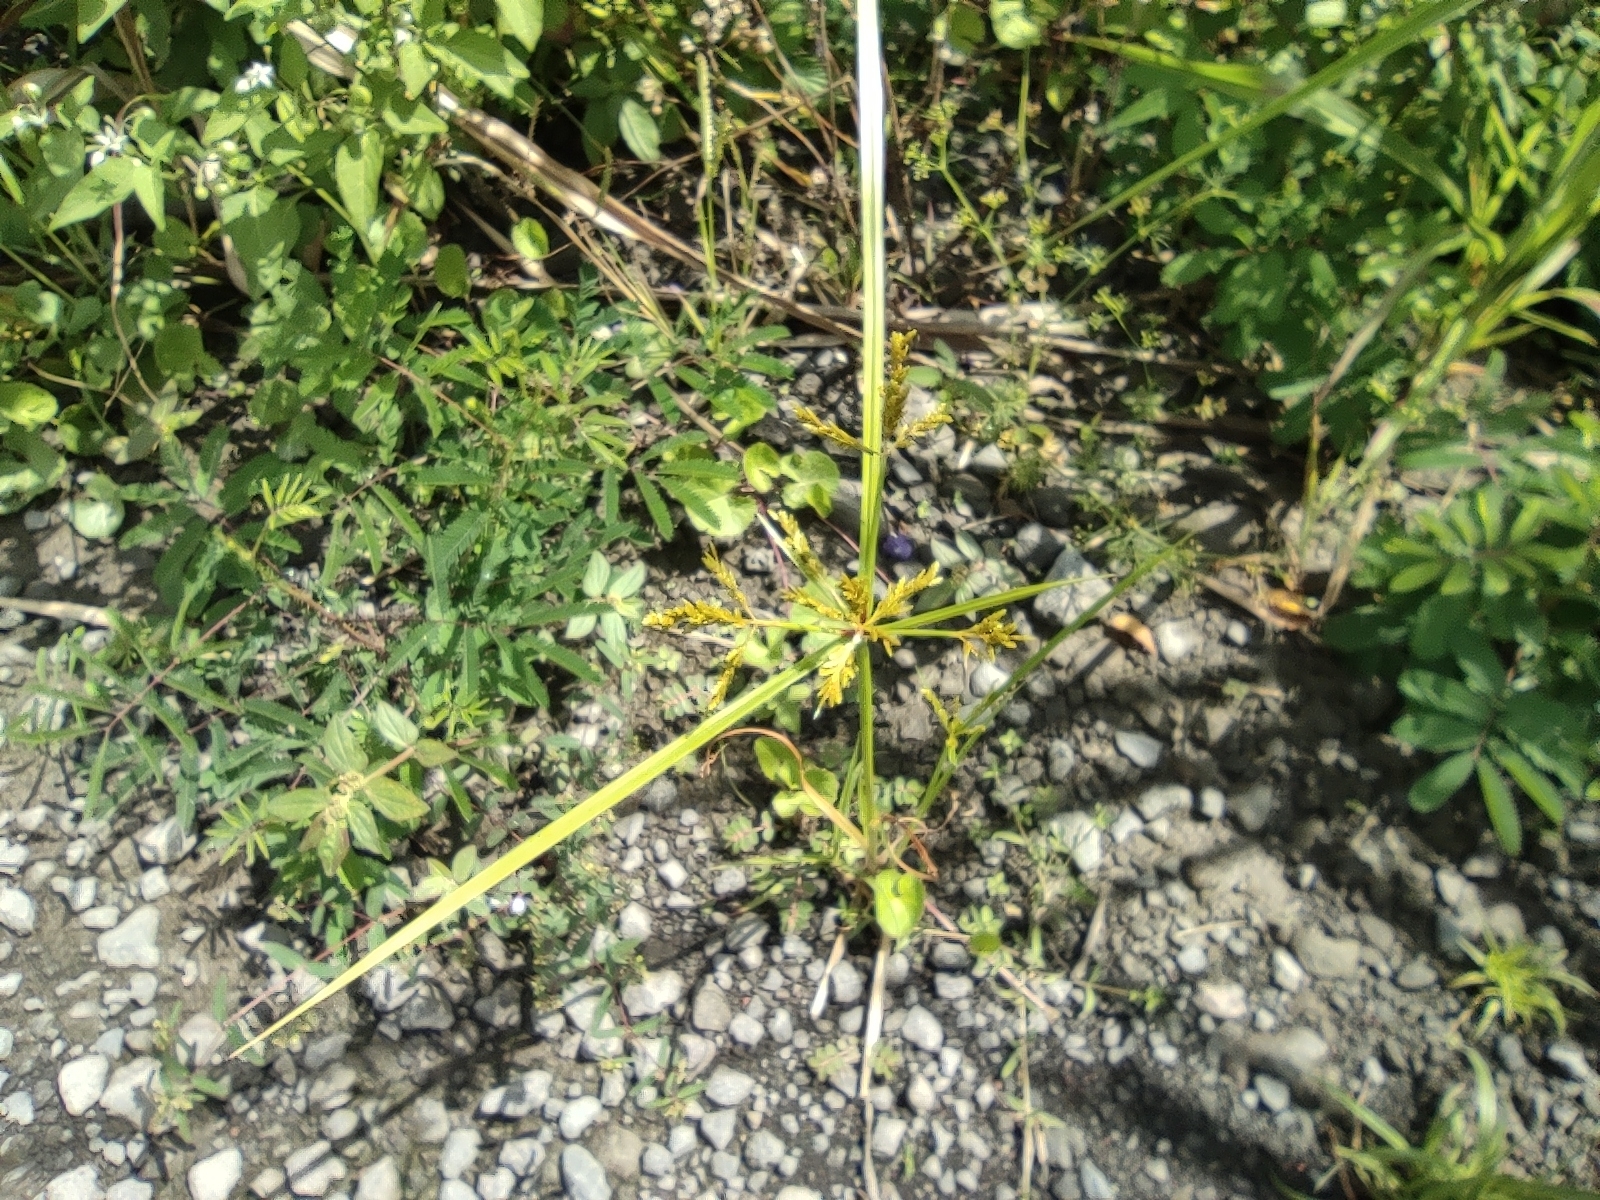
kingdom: Plantae
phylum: Tracheophyta
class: Liliopsida
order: Poales
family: Cyperaceae
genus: Cyperus
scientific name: Cyperus iria
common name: Ricefield flatsedge
